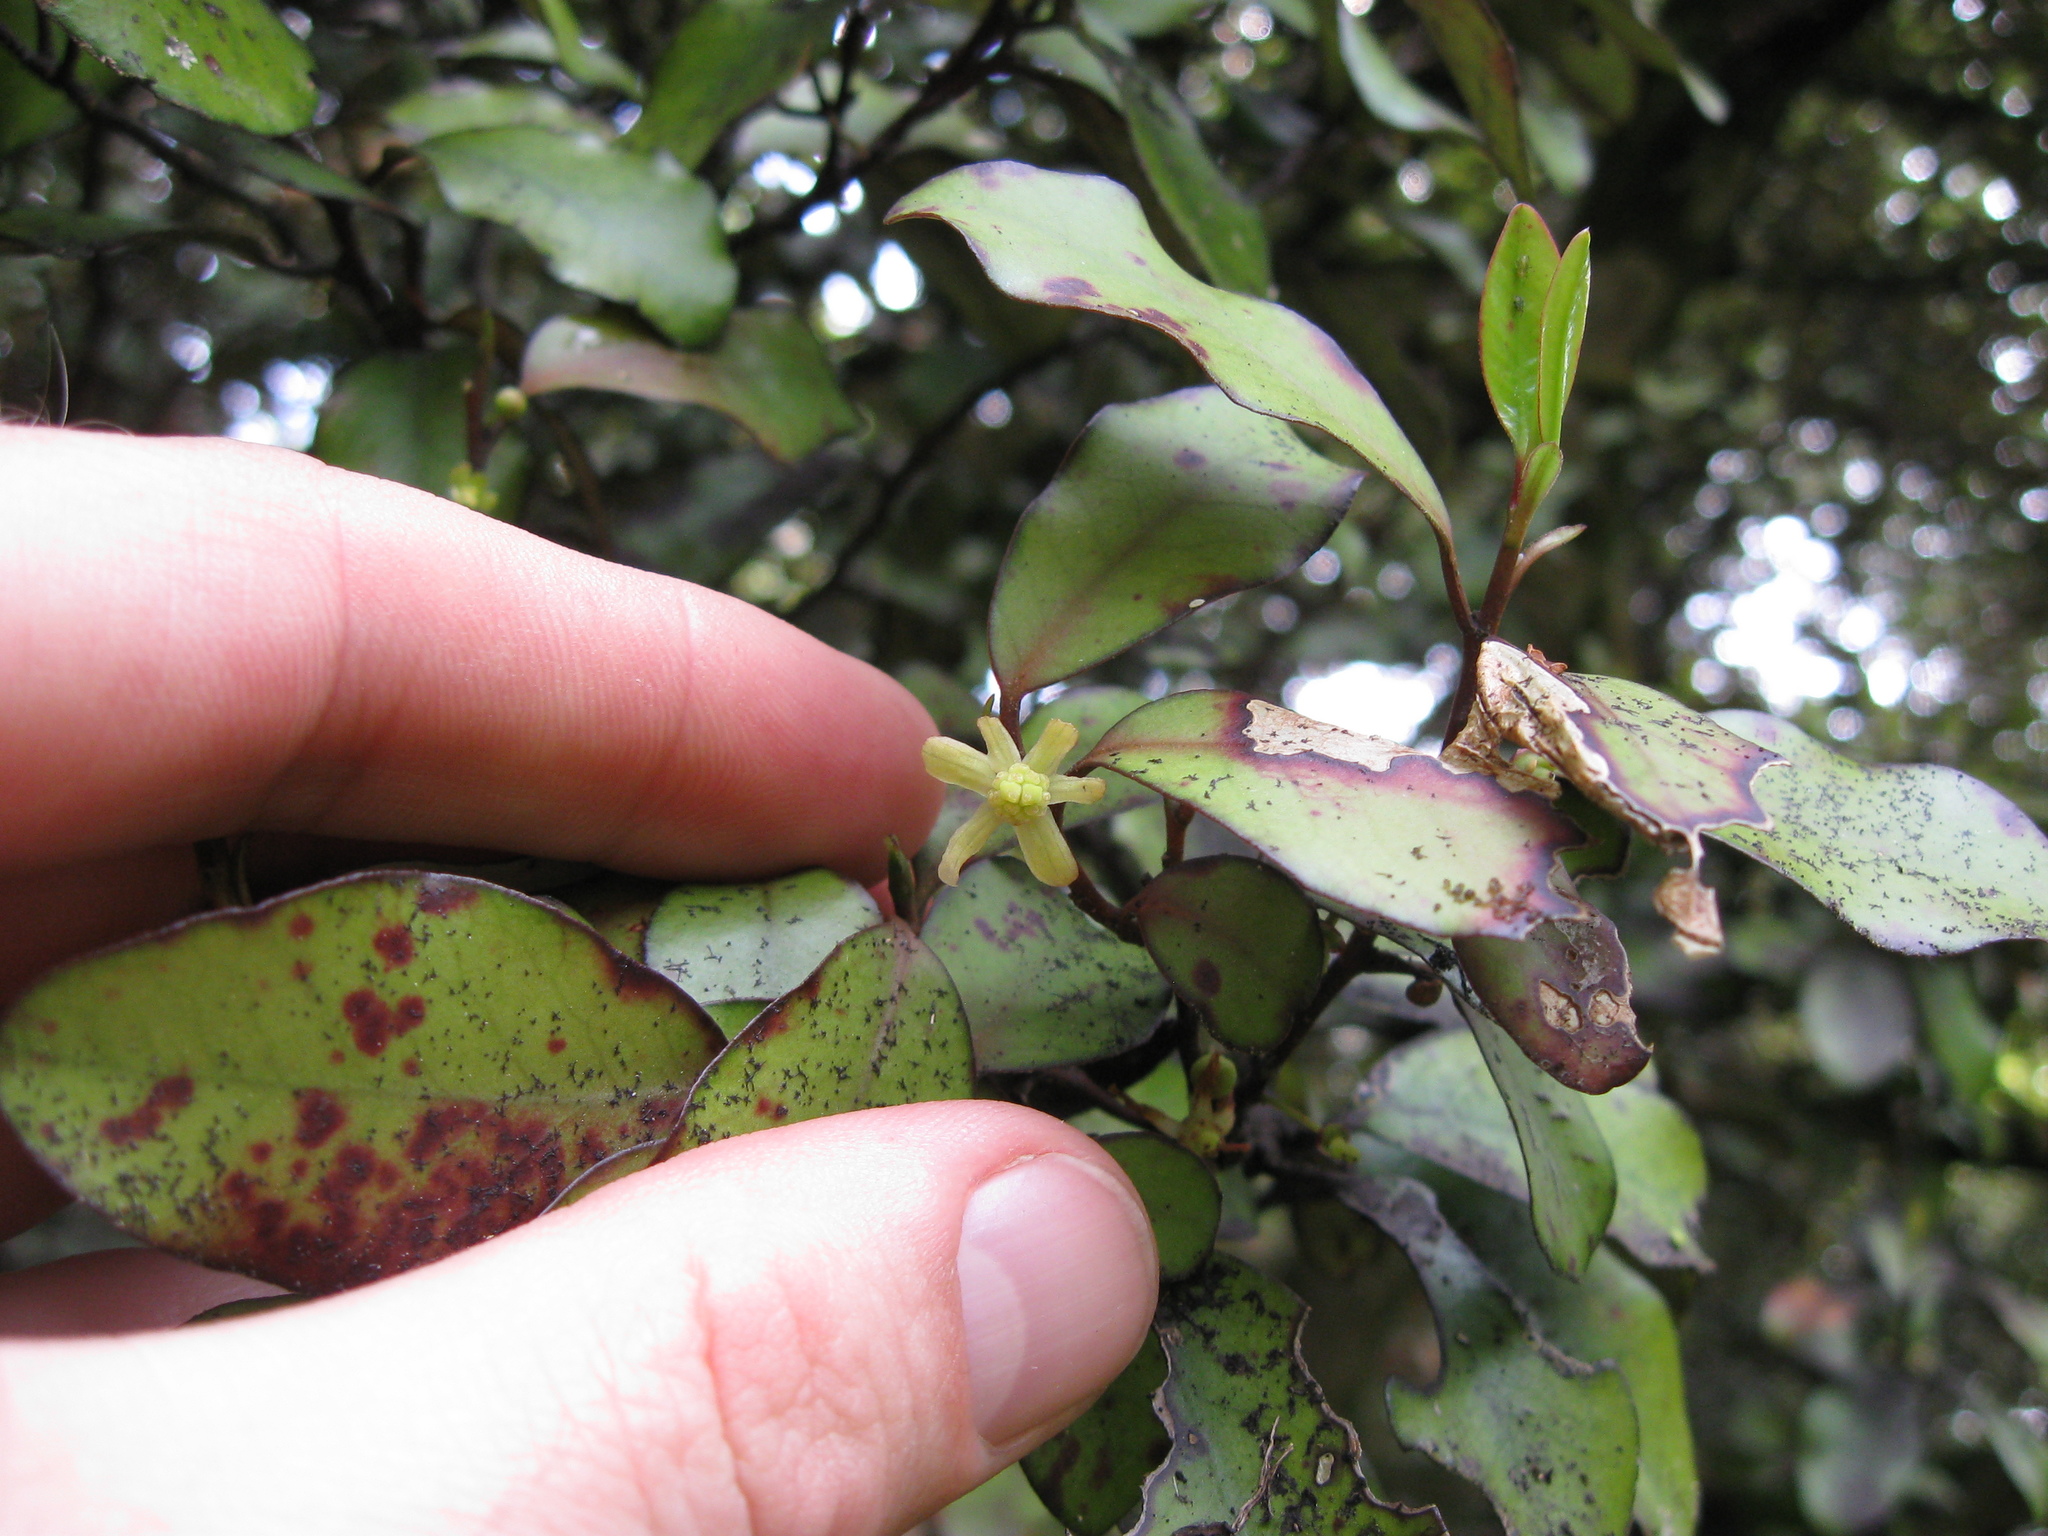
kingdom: Plantae
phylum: Tracheophyta
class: Magnoliopsida
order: Canellales
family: Winteraceae
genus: Pseudowintera
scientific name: Pseudowintera colorata
